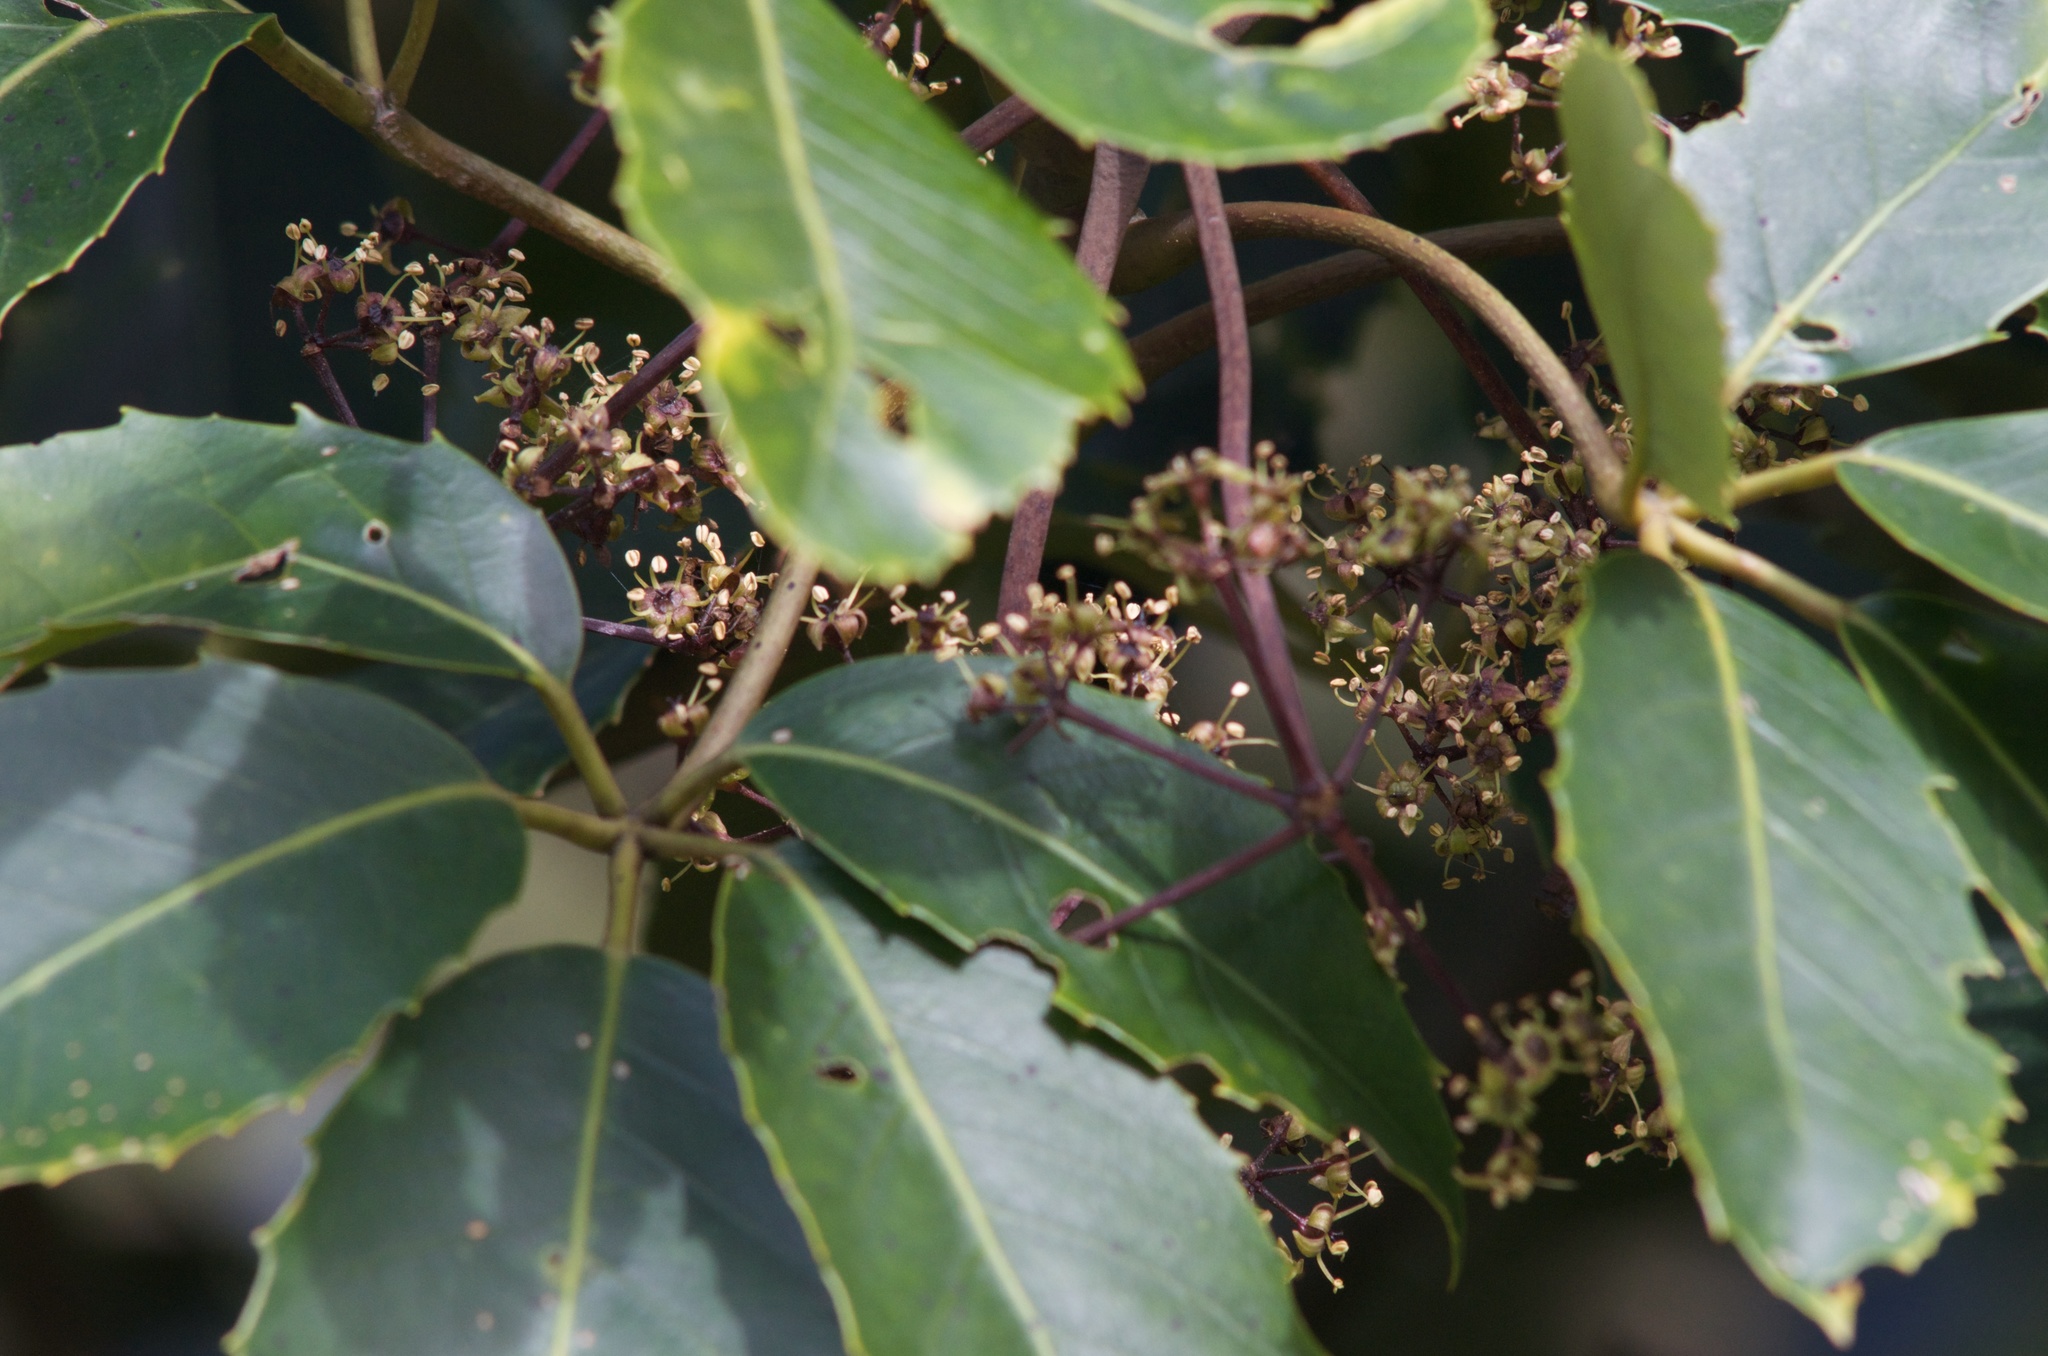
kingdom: Plantae
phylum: Tracheophyta
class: Magnoliopsida
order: Apiales
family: Araliaceae
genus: Neopanax
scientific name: Neopanax arboreus
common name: Five-fingers
